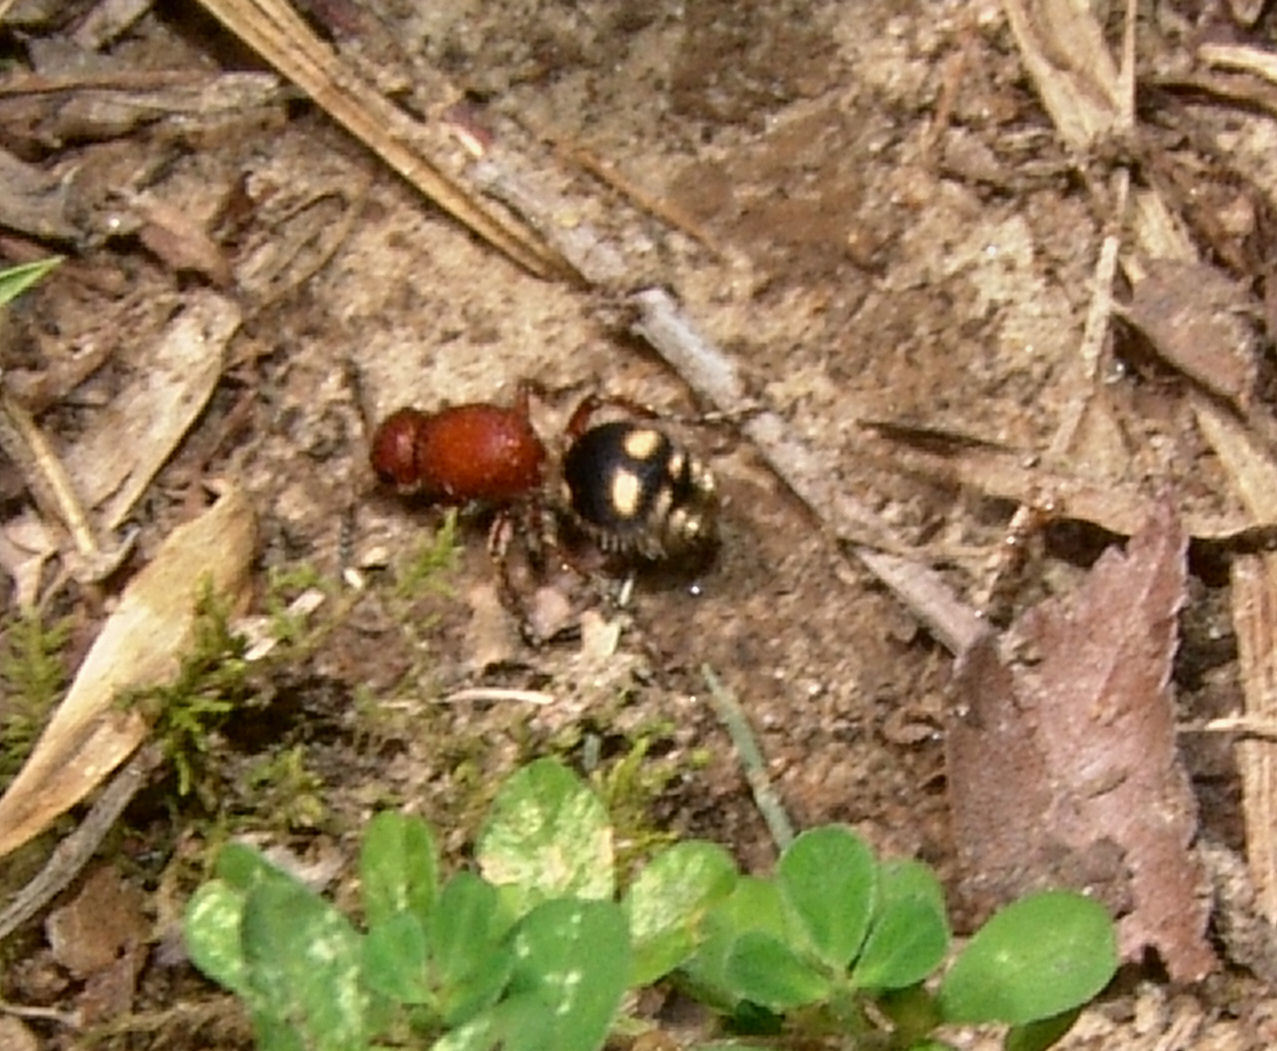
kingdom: Animalia
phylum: Arthropoda
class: Insecta
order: Hymenoptera
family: Mutillidae
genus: Dasymutilla
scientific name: Dasymutilla
